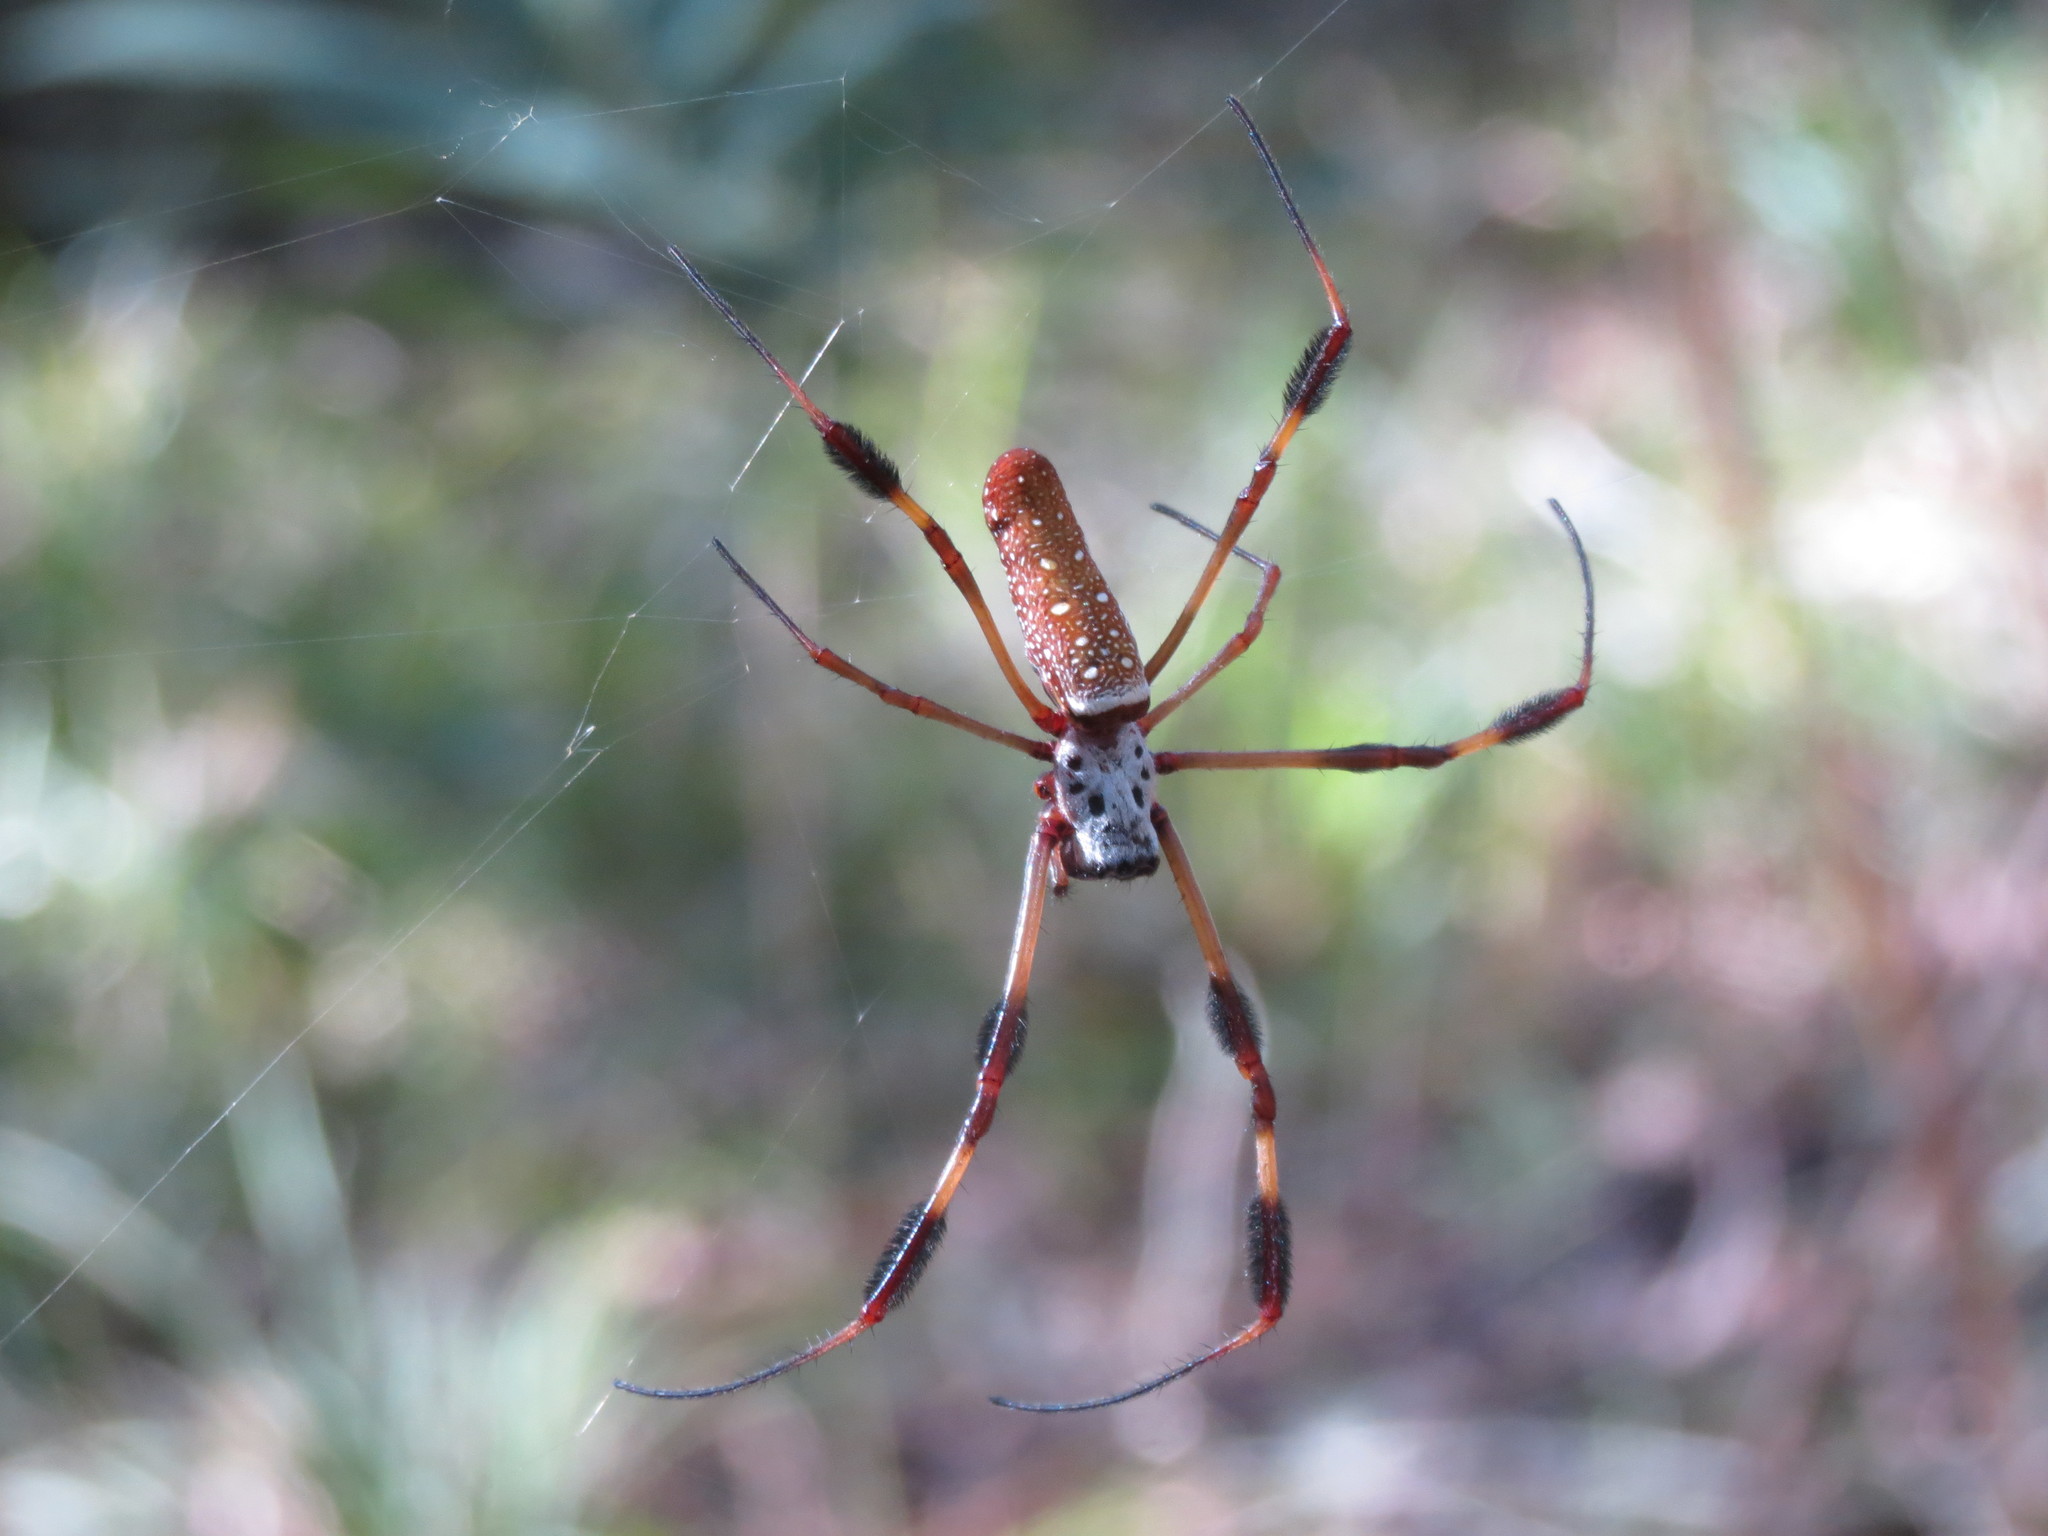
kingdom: Animalia
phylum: Arthropoda
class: Arachnida
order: Araneae
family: Araneidae
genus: Trichonephila
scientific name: Trichonephila clavipes
